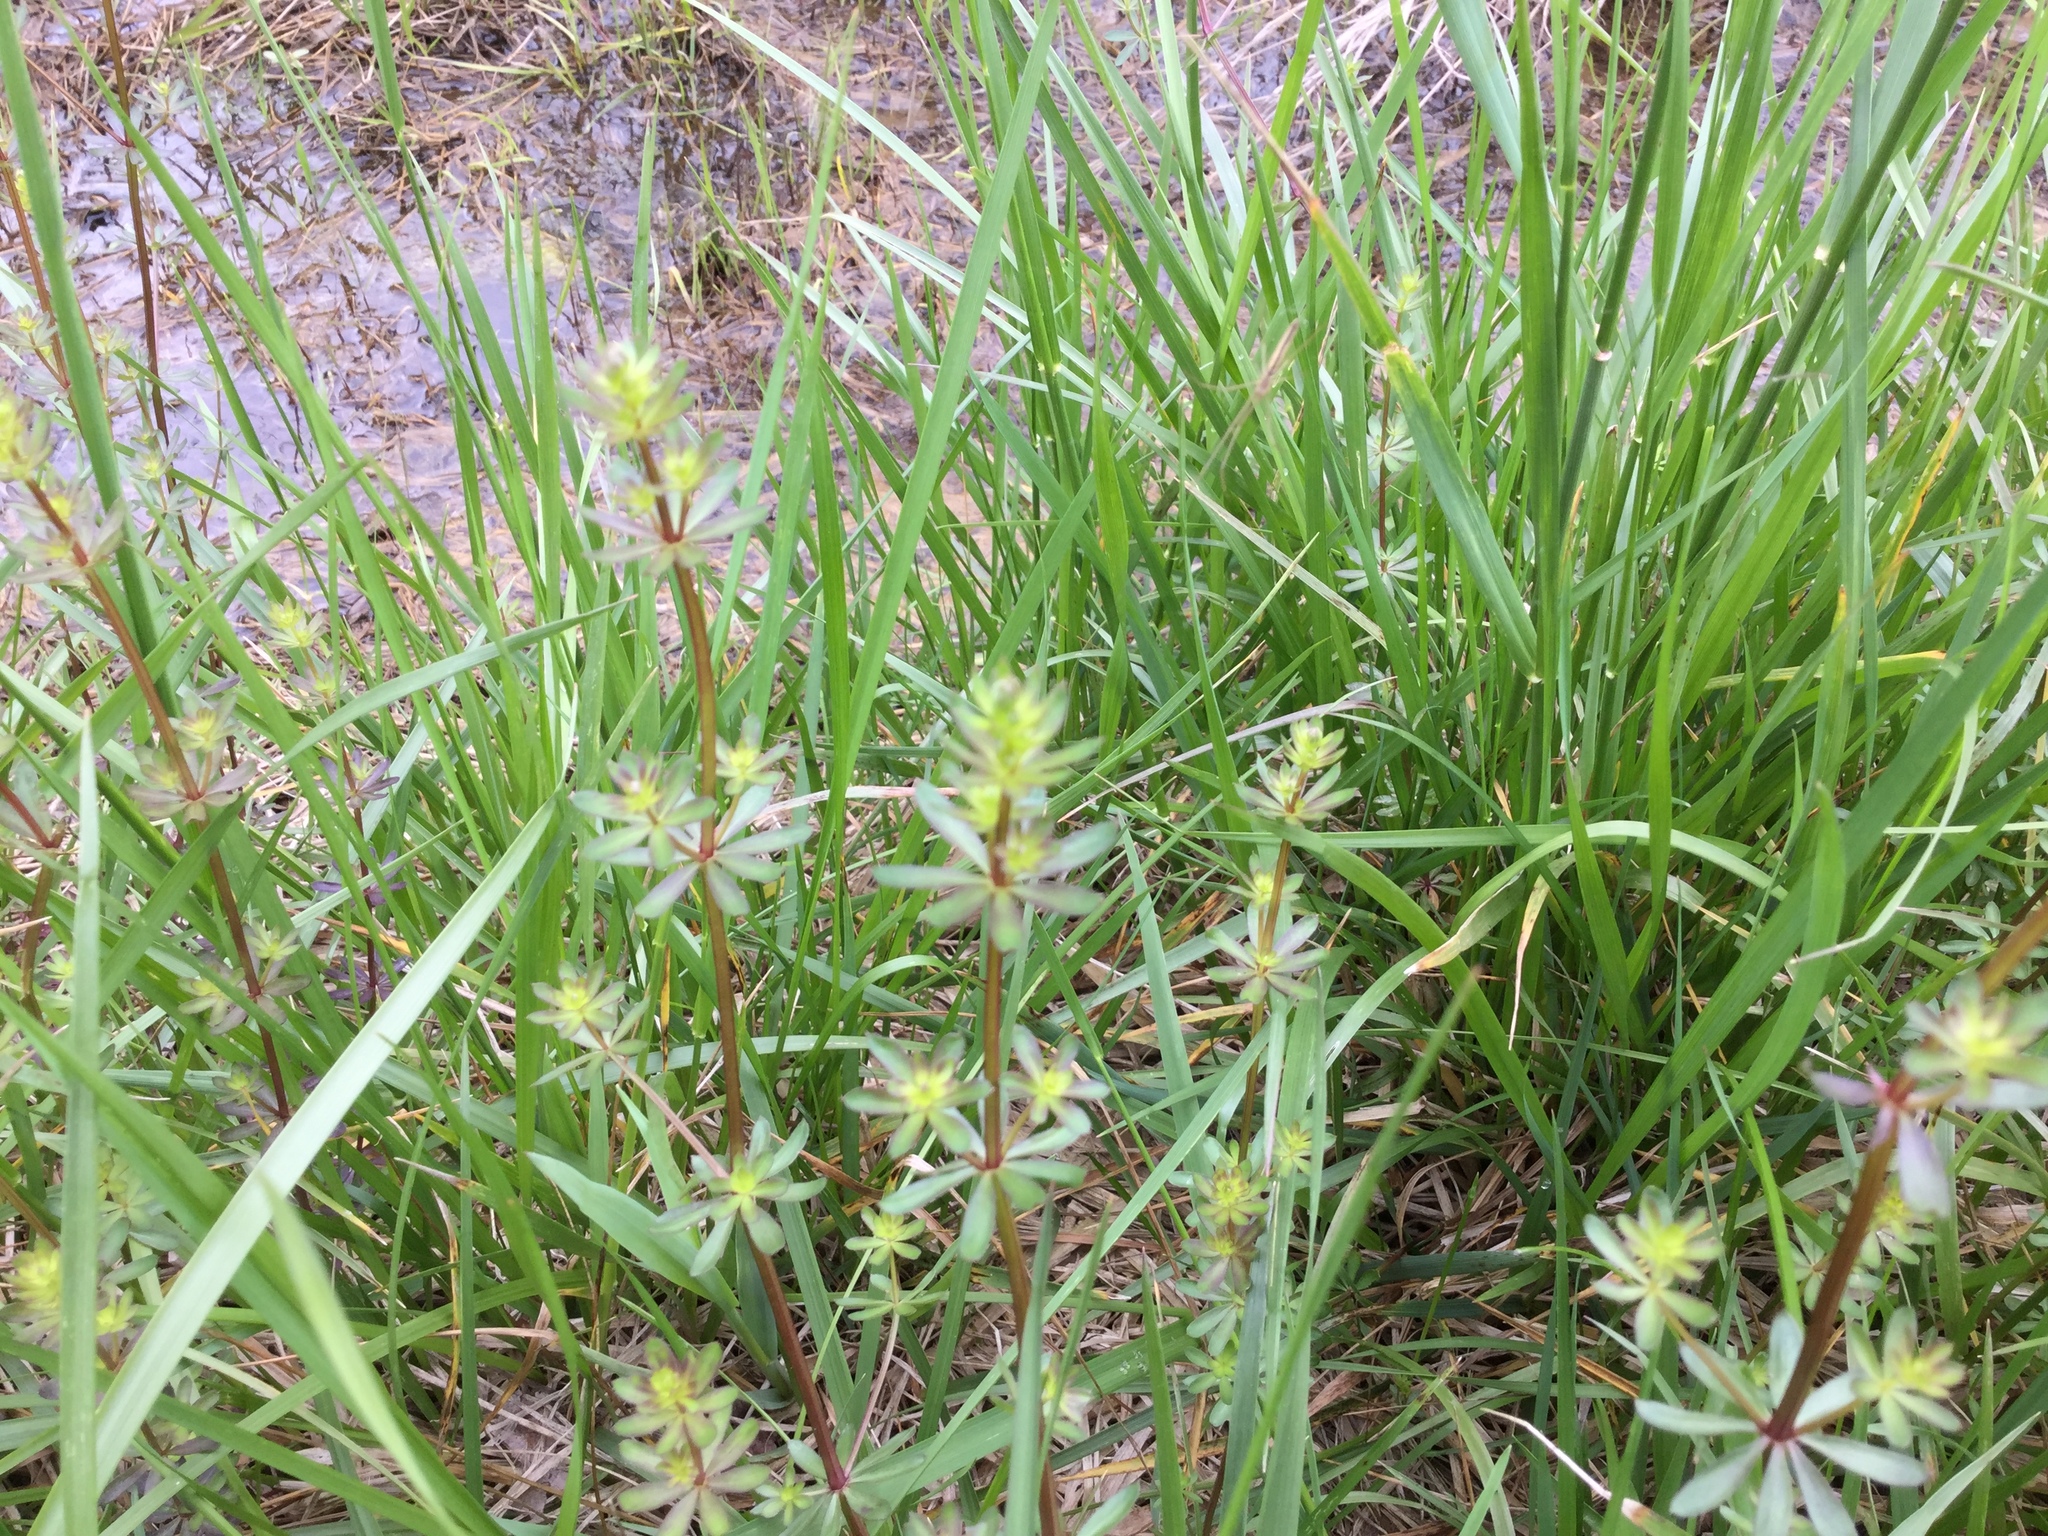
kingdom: Plantae
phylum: Tracheophyta
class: Magnoliopsida
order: Gentianales
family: Rubiaceae
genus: Galium
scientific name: Galium mollugo
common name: Hedge bedstraw
